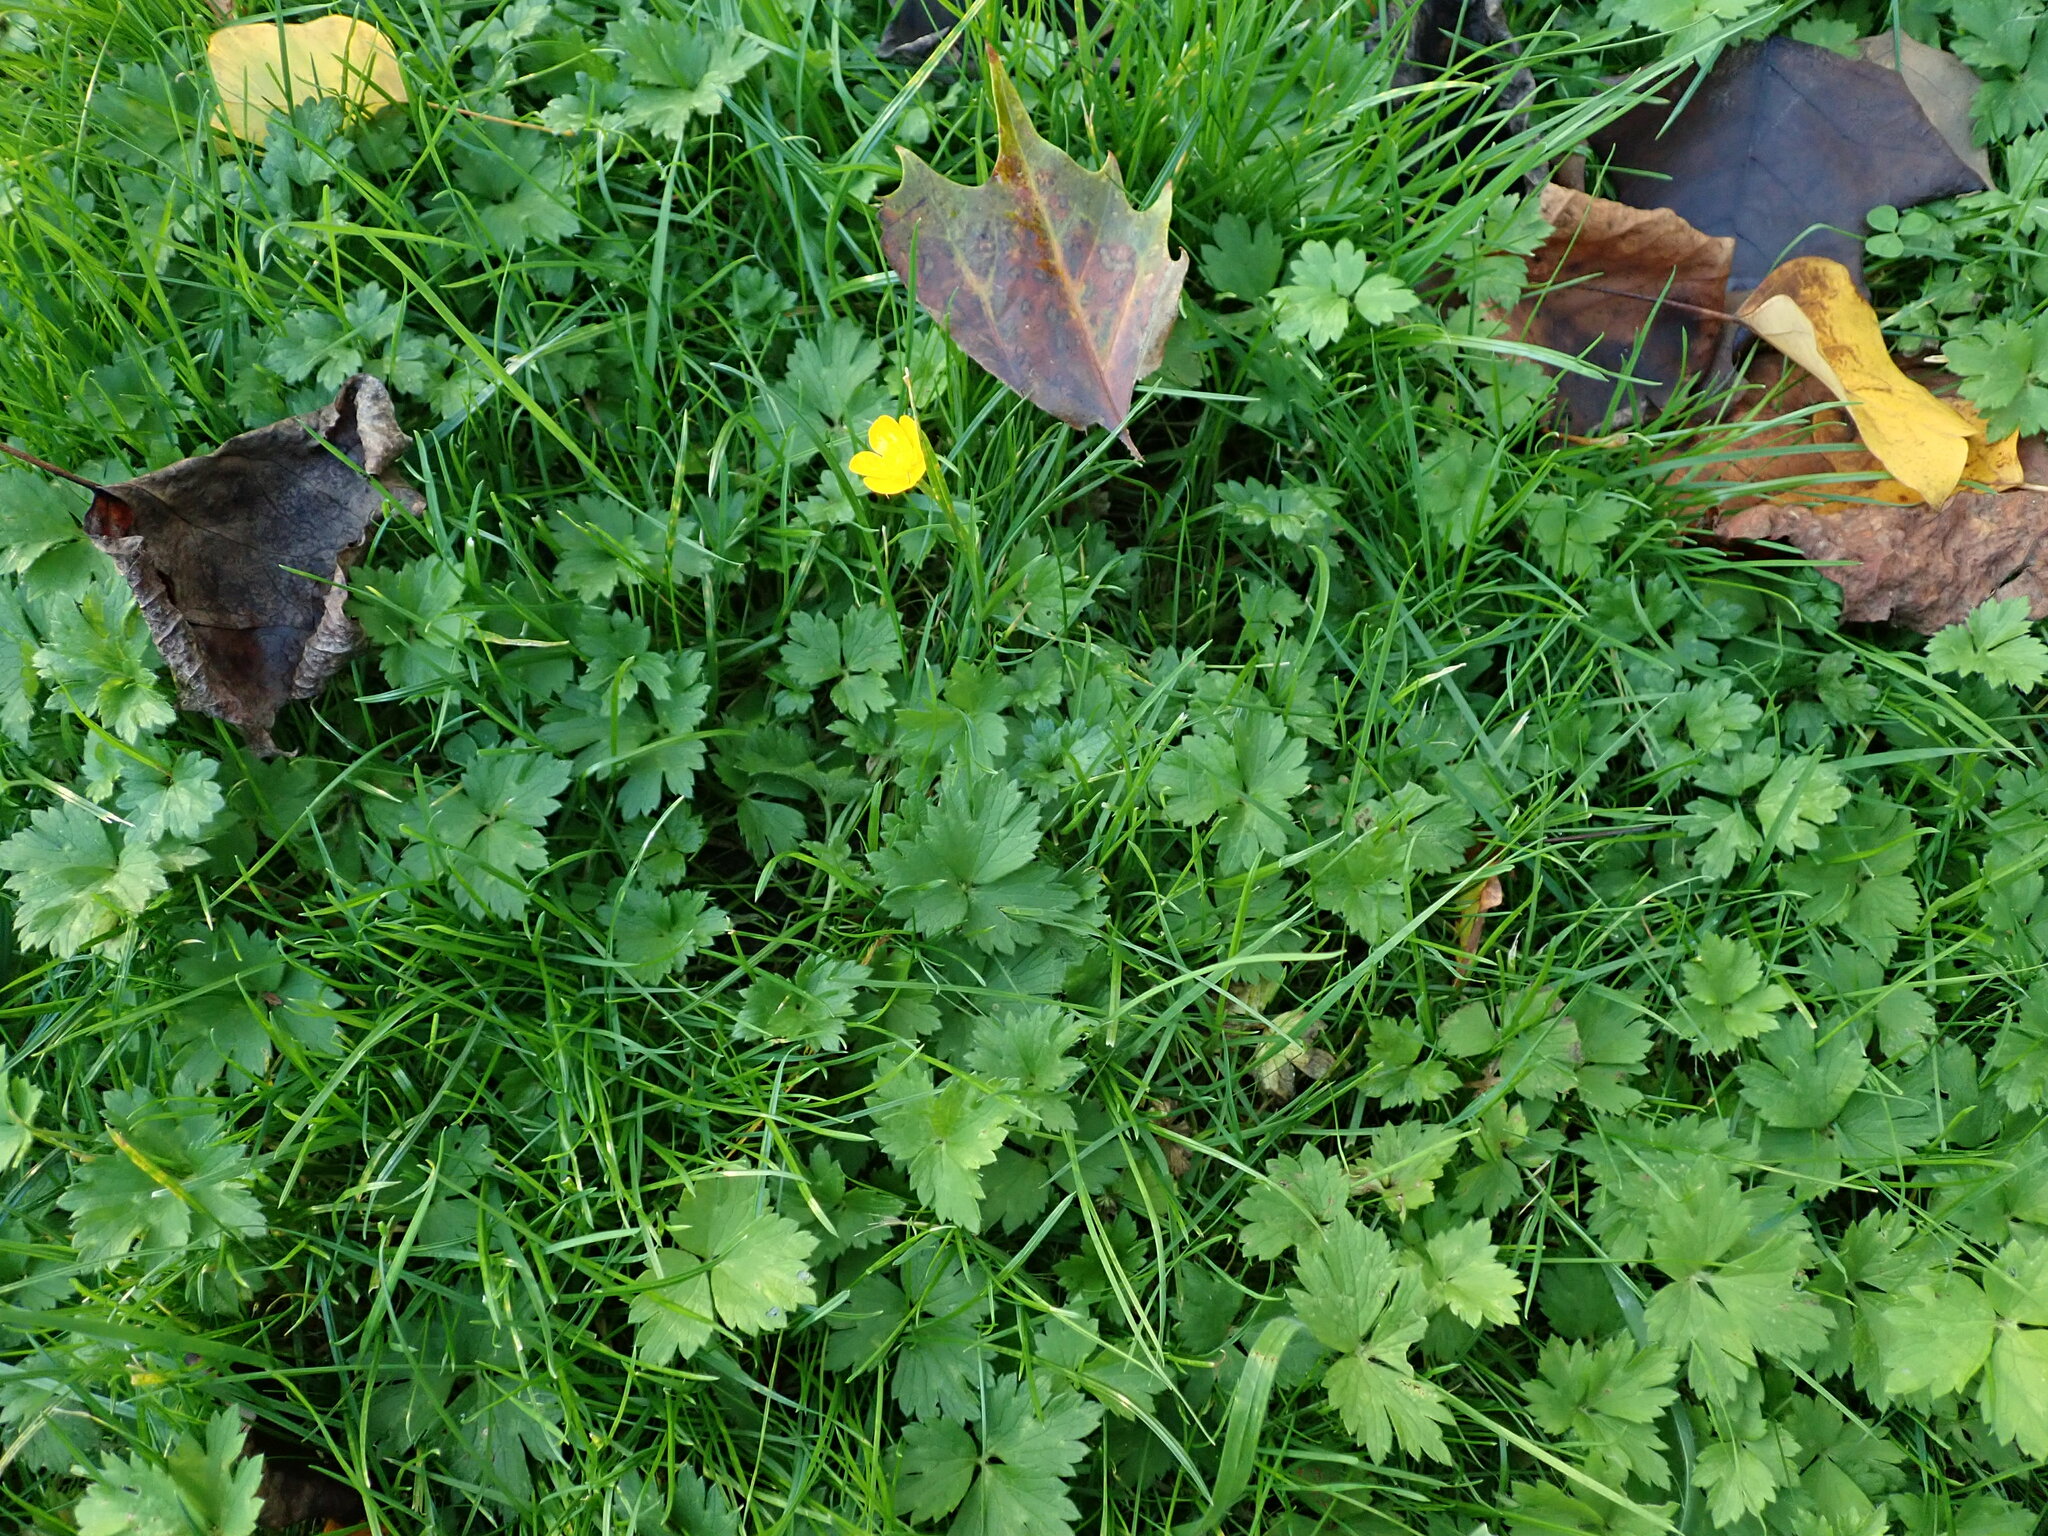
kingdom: Plantae
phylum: Tracheophyta
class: Magnoliopsida
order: Ranunculales
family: Ranunculaceae
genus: Ranunculus
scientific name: Ranunculus repens
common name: Creeping buttercup
